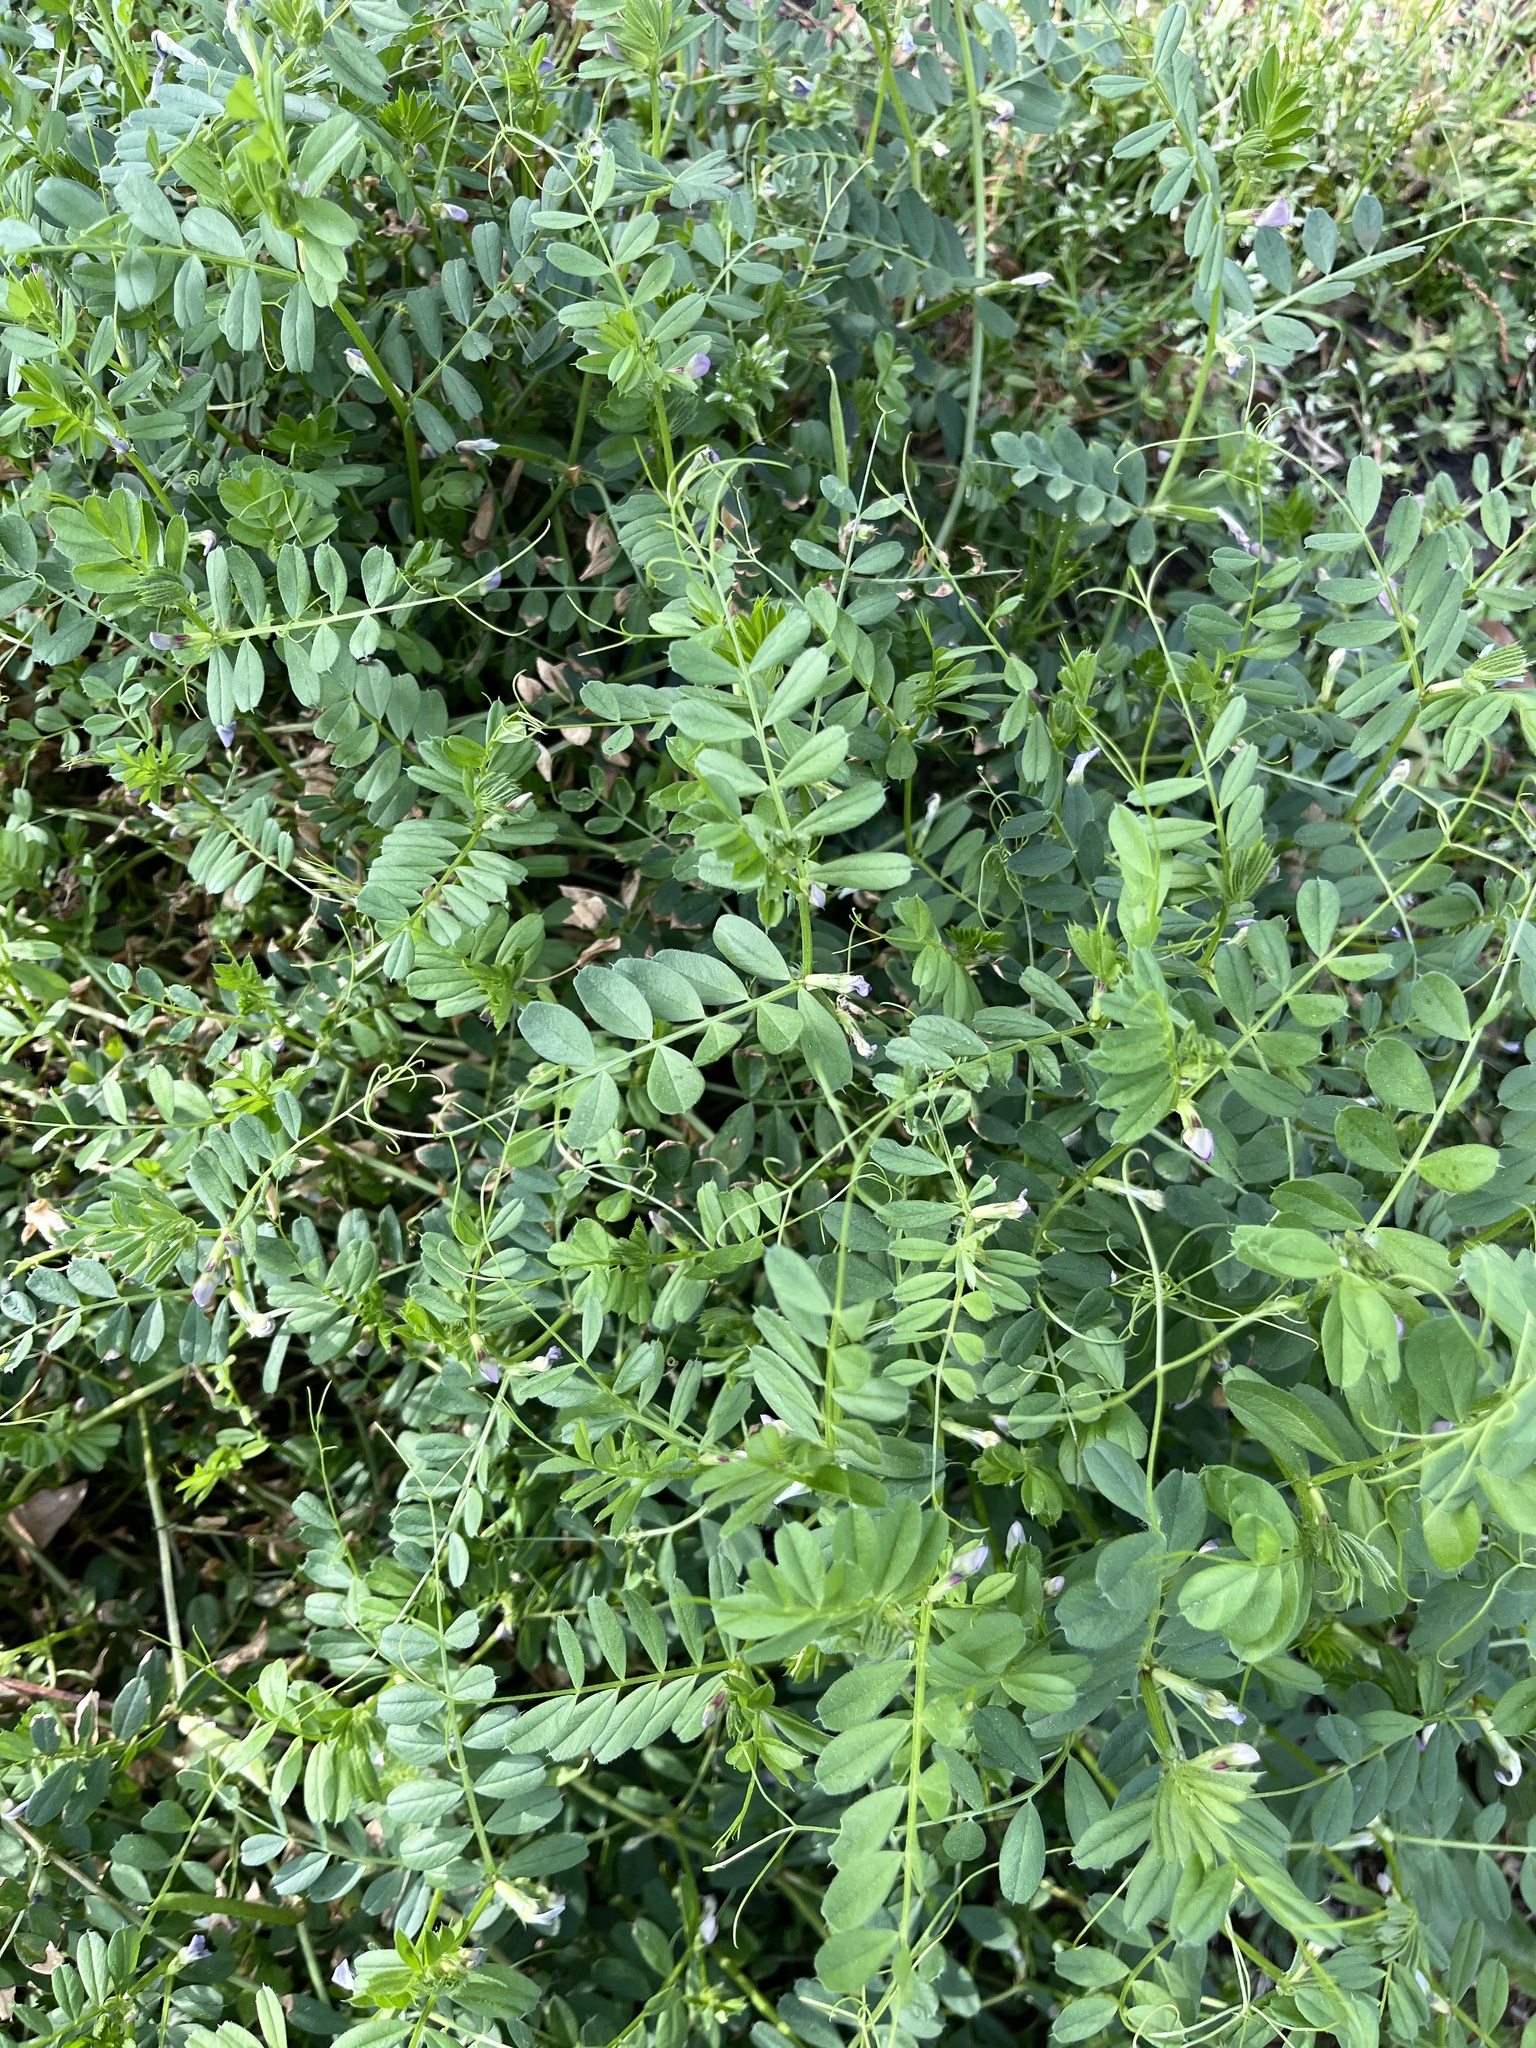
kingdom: Plantae
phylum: Tracheophyta
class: Magnoliopsida
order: Fabales
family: Fabaceae
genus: Vicia
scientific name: Vicia sativa
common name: Garden vetch
